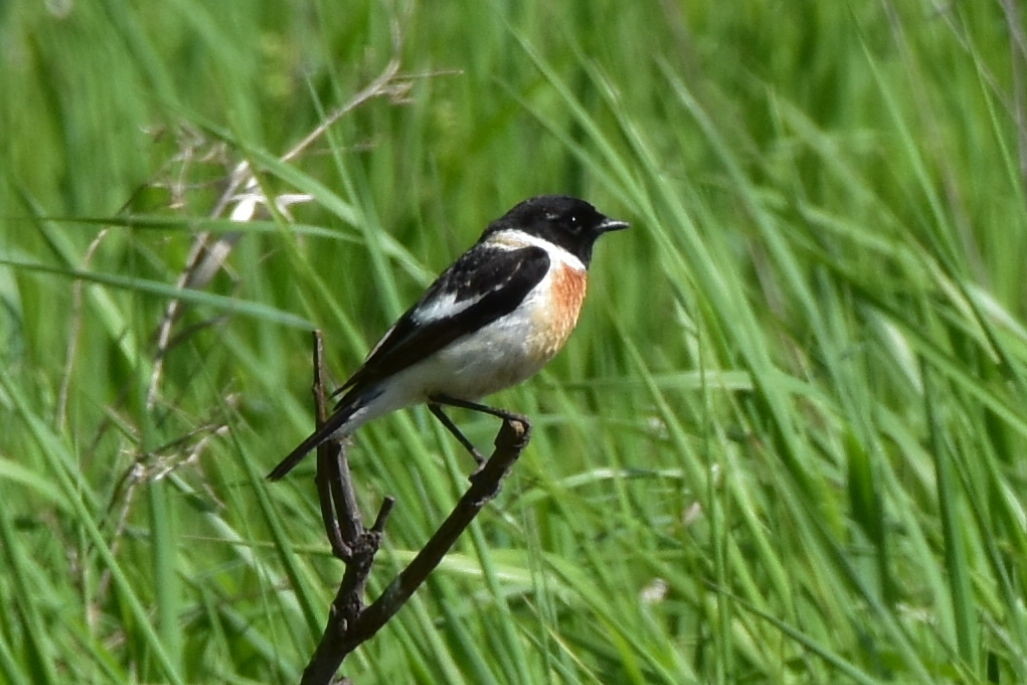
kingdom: Animalia
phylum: Chordata
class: Aves
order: Passeriformes
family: Muscicapidae
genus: Saxicola
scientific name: Saxicola maurus
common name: Siberian stonechat
